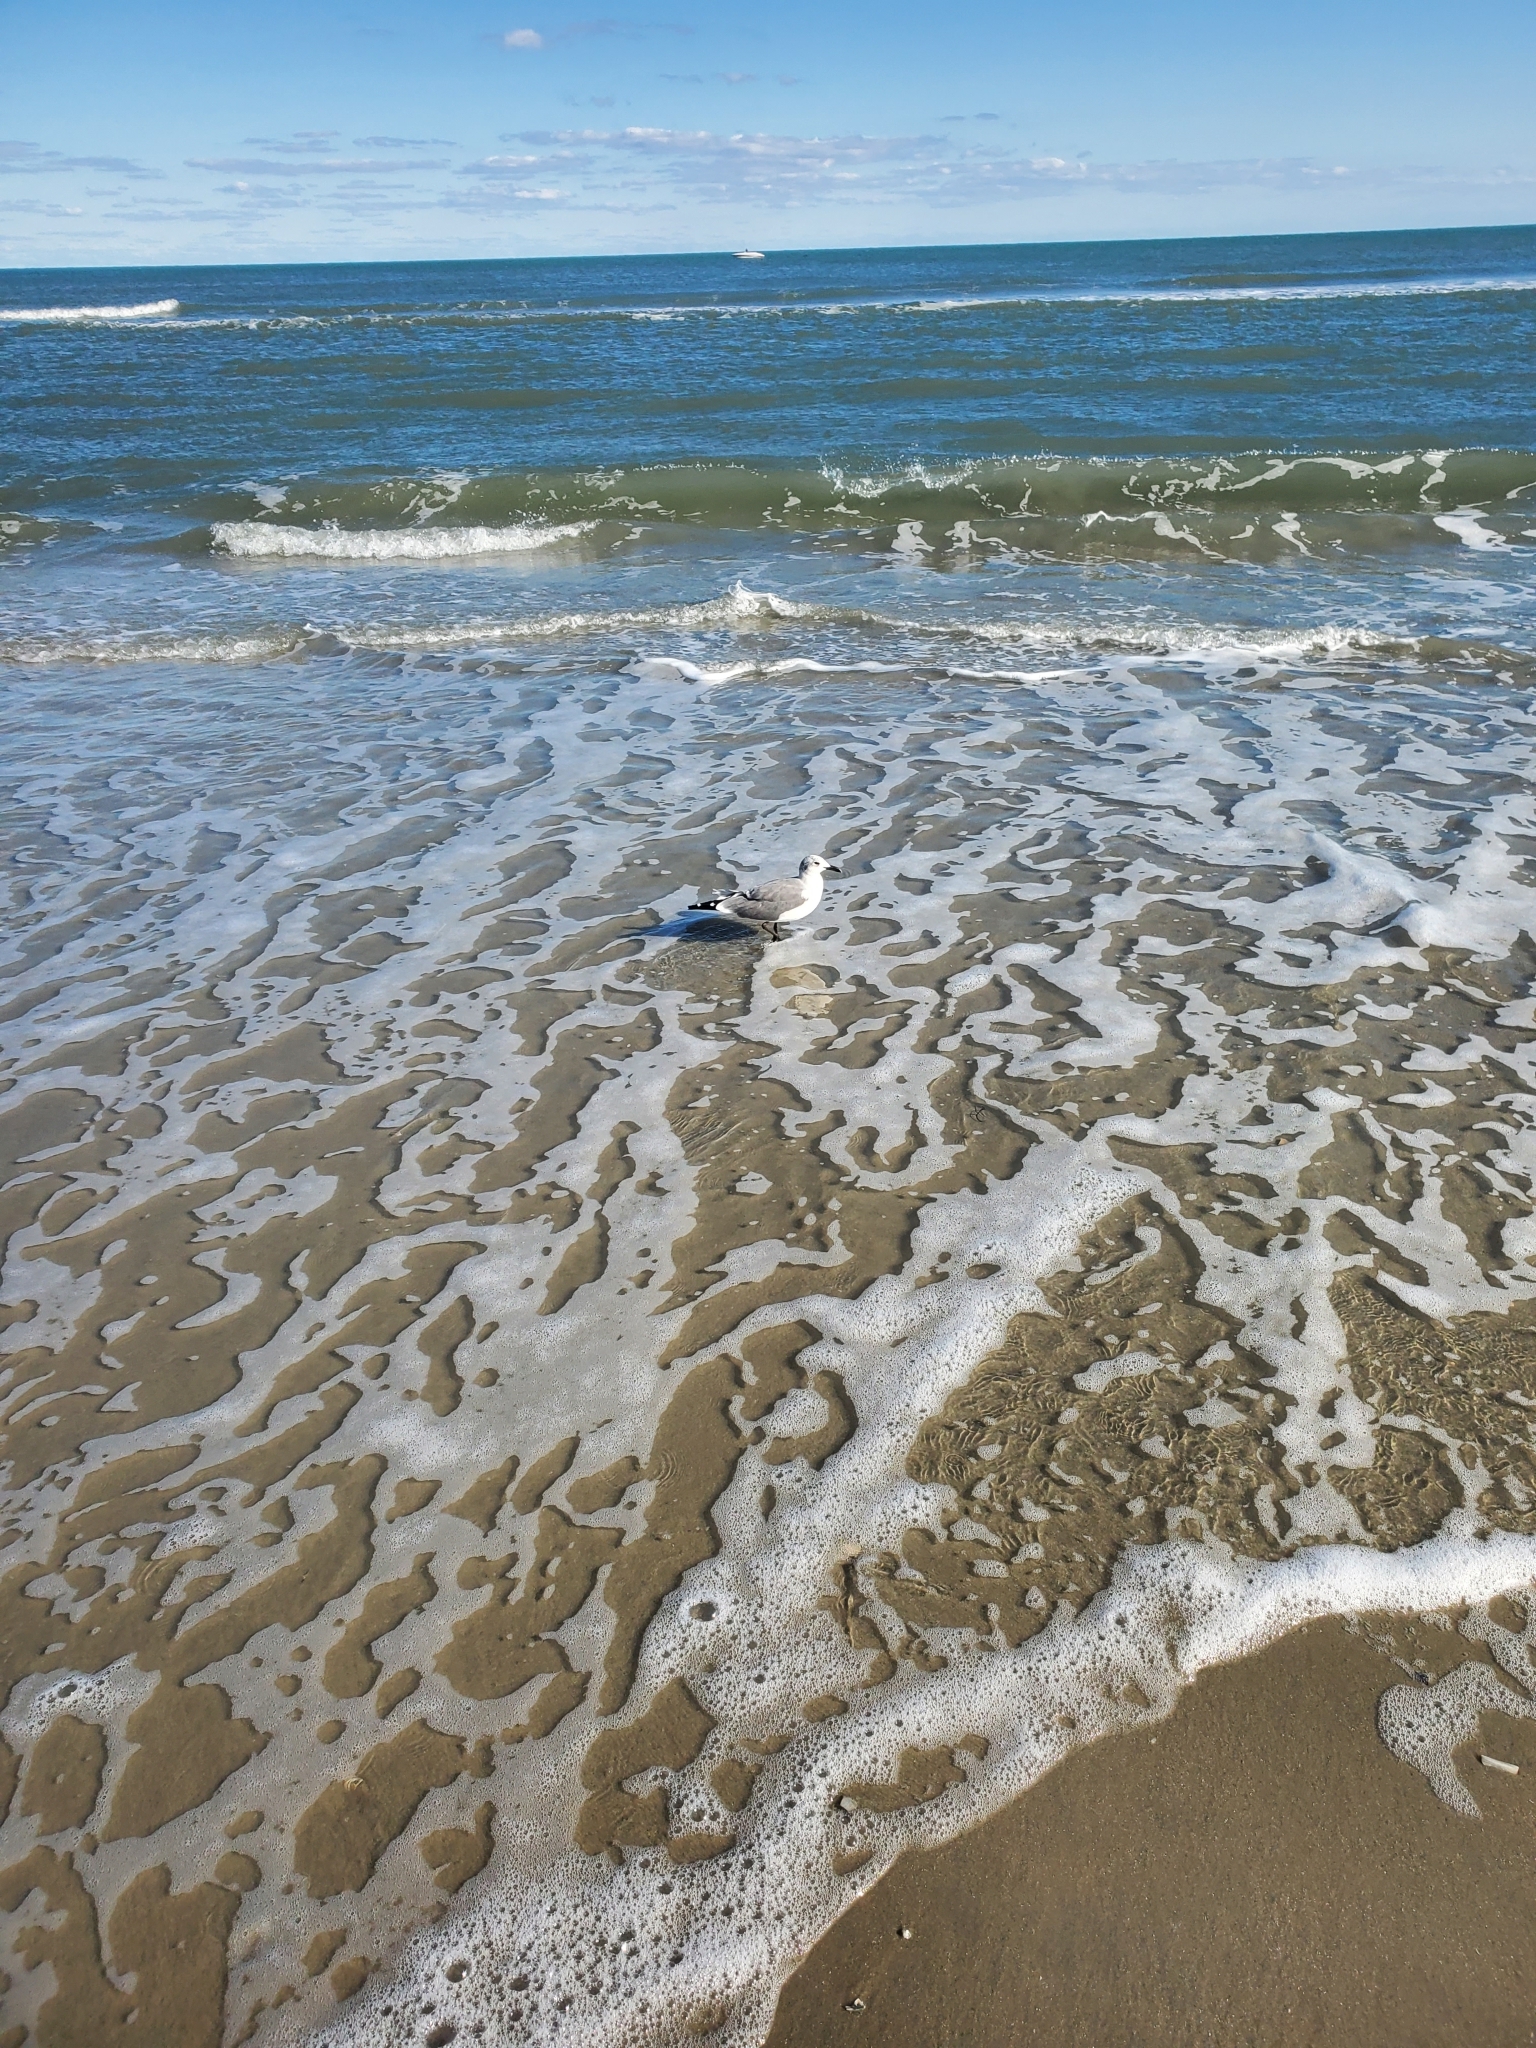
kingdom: Animalia
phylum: Chordata
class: Aves
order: Charadriiformes
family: Laridae
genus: Leucophaeus
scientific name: Leucophaeus atricilla
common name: Laughing gull
